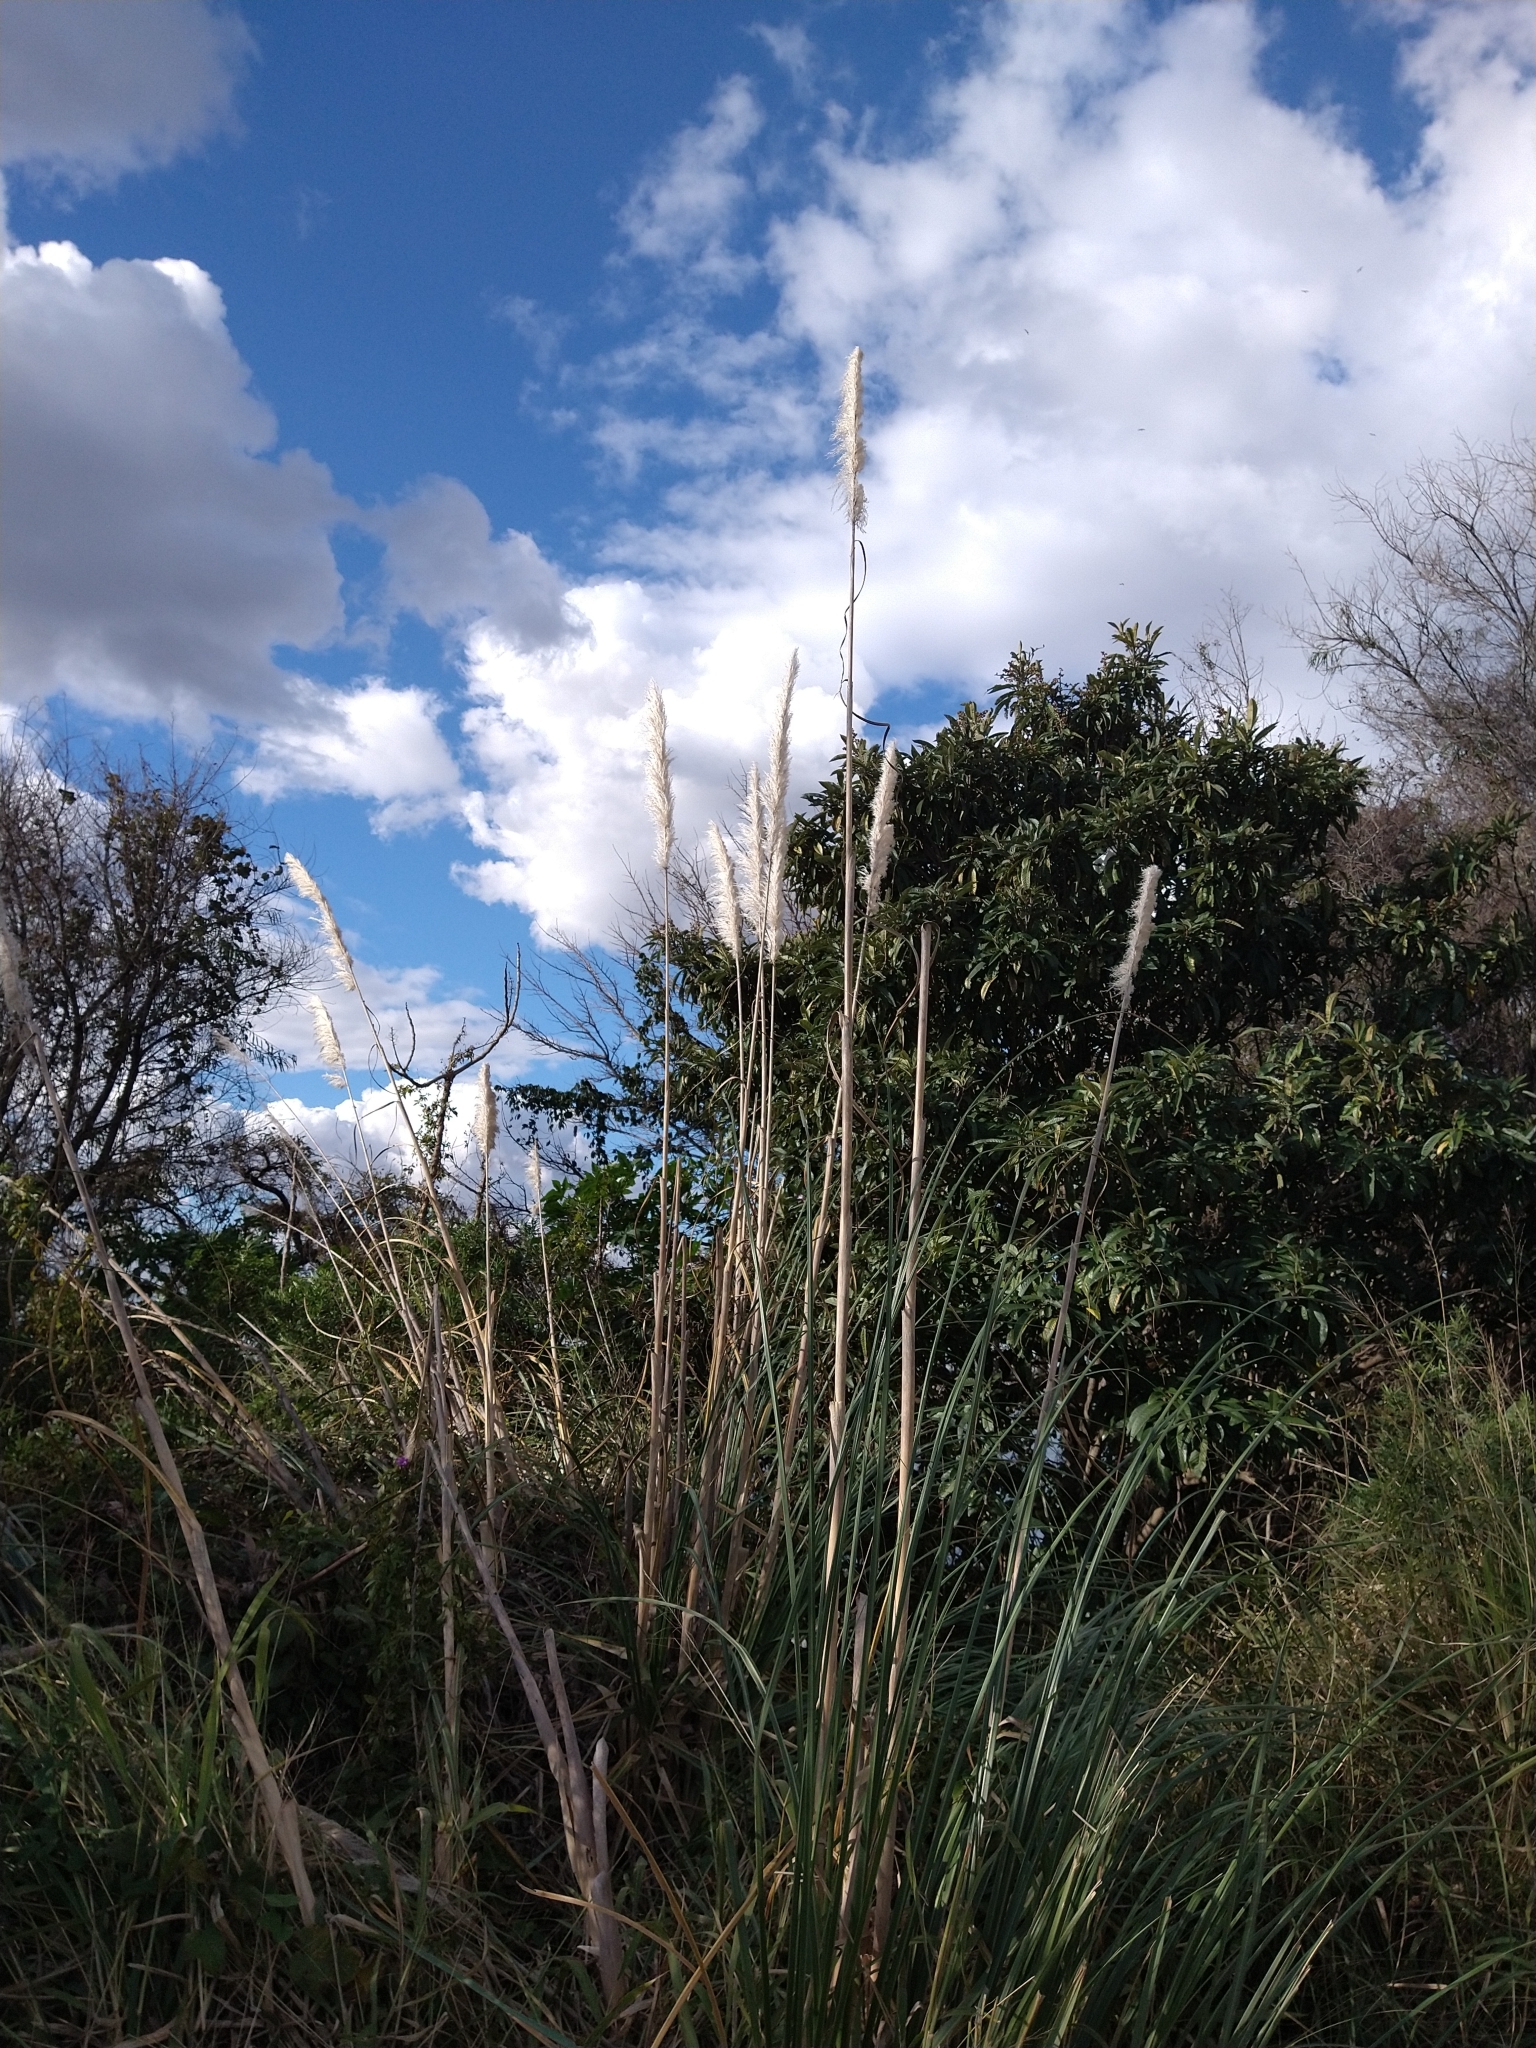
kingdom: Plantae
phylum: Tracheophyta
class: Liliopsida
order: Poales
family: Poaceae
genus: Cortaderia
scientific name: Cortaderia selloana
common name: Uruguayan pampas grass
